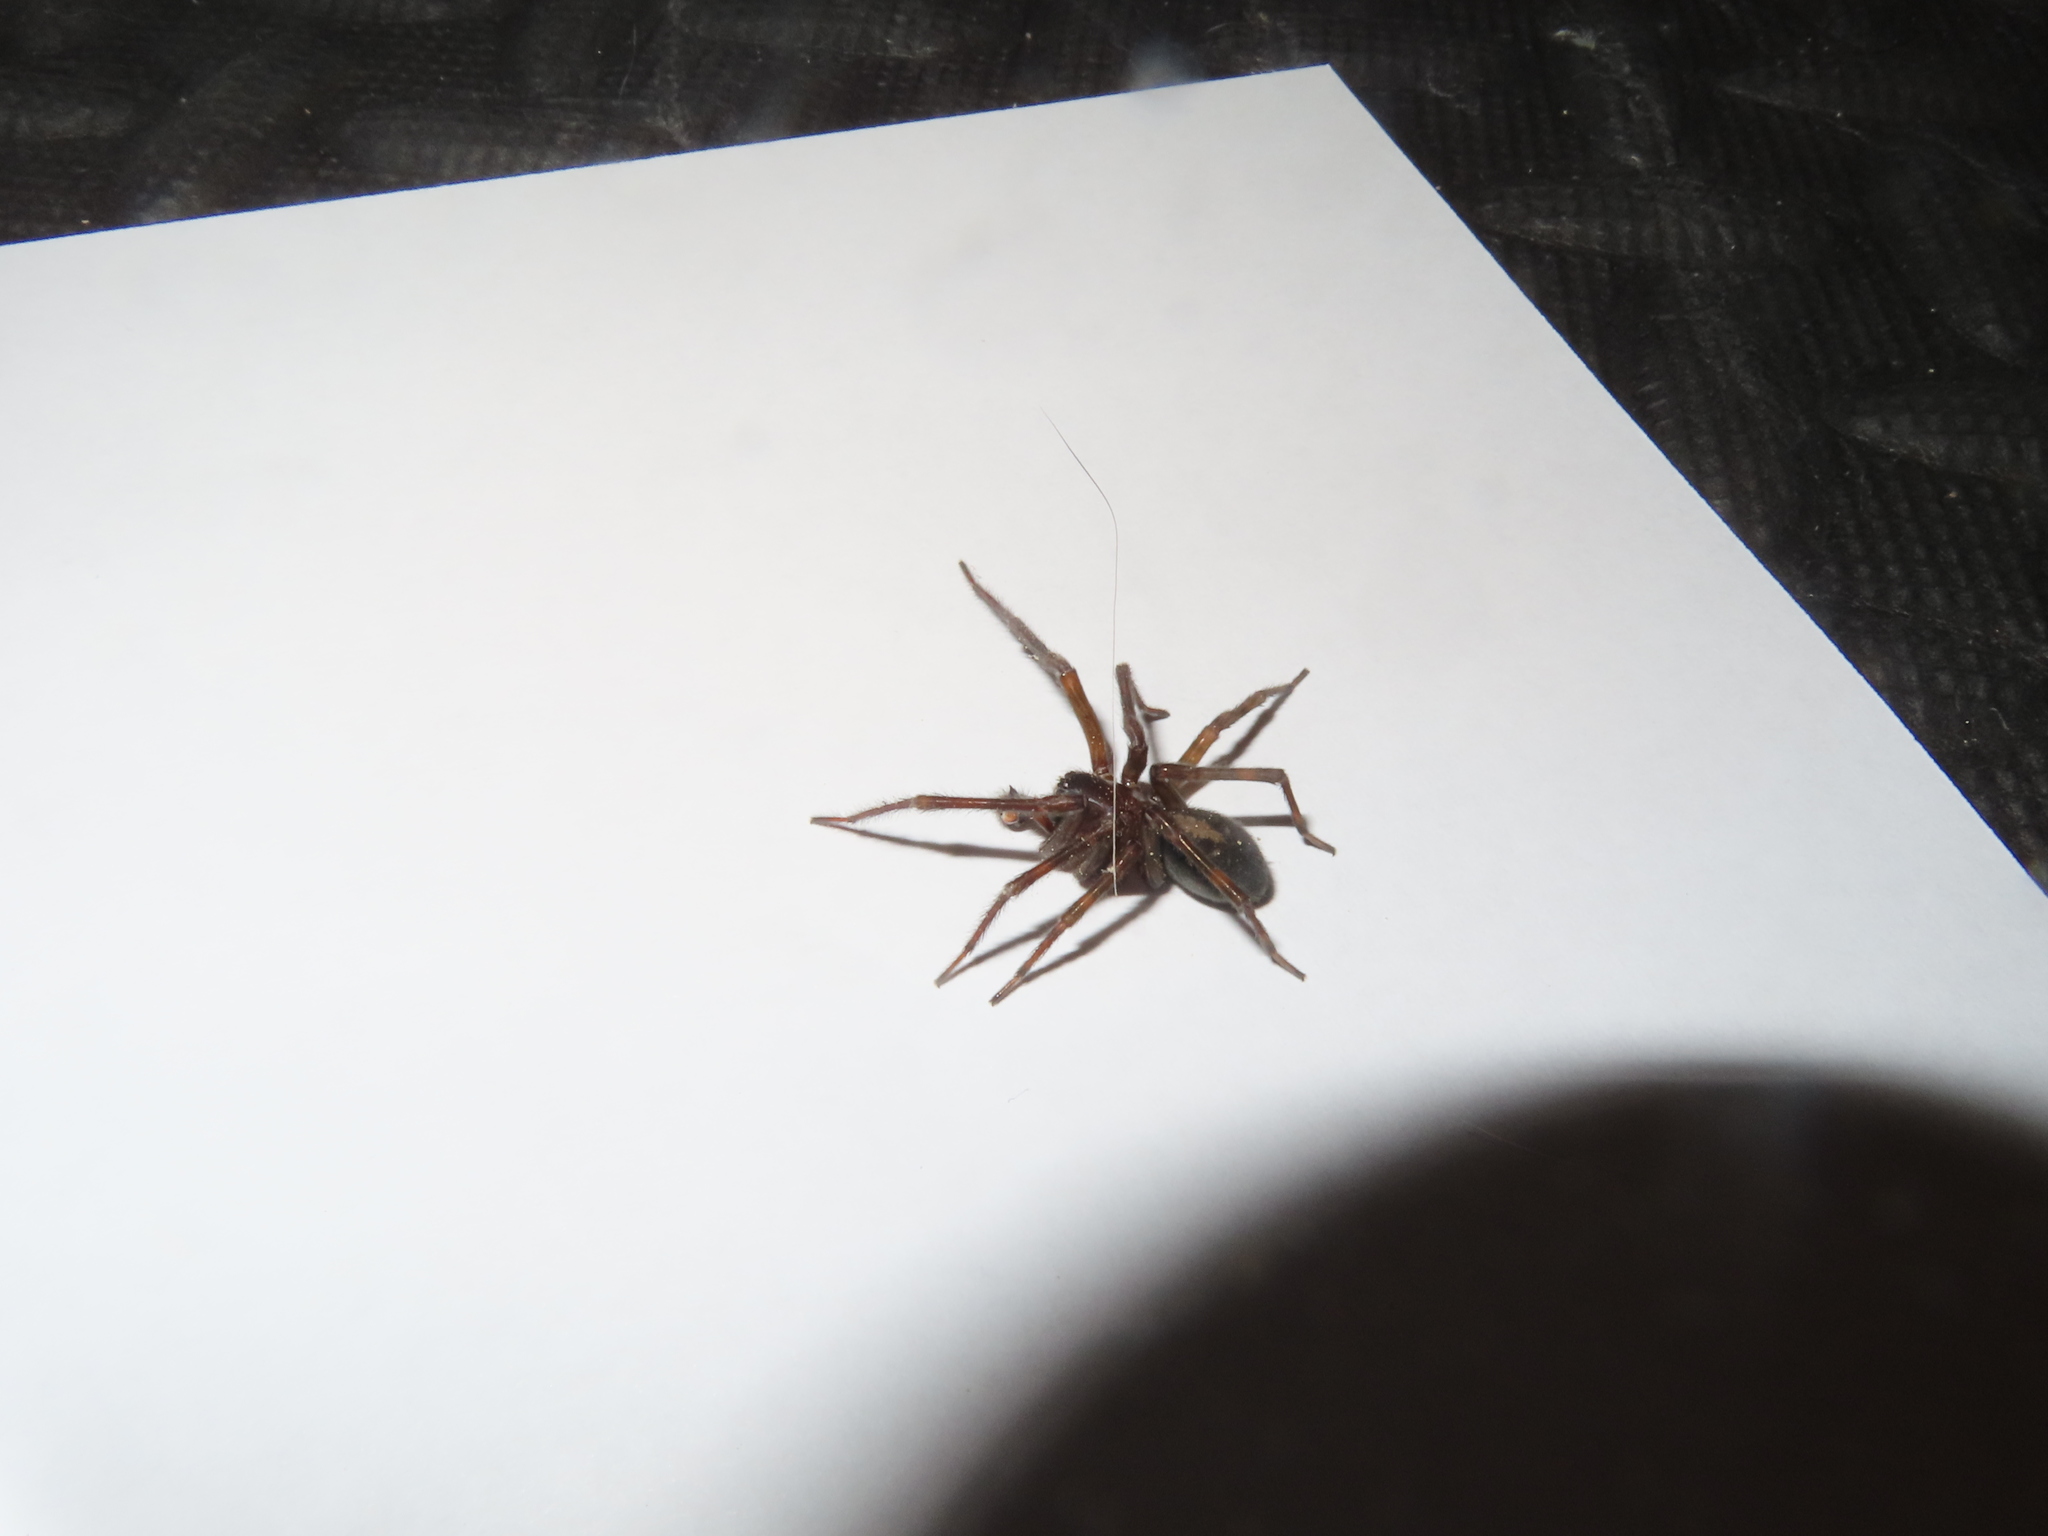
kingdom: Animalia
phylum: Arthropoda
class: Arachnida
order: Araneae
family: Amaurobiidae
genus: Amaurobius
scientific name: Amaurobius ferox
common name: Black laceweaver
